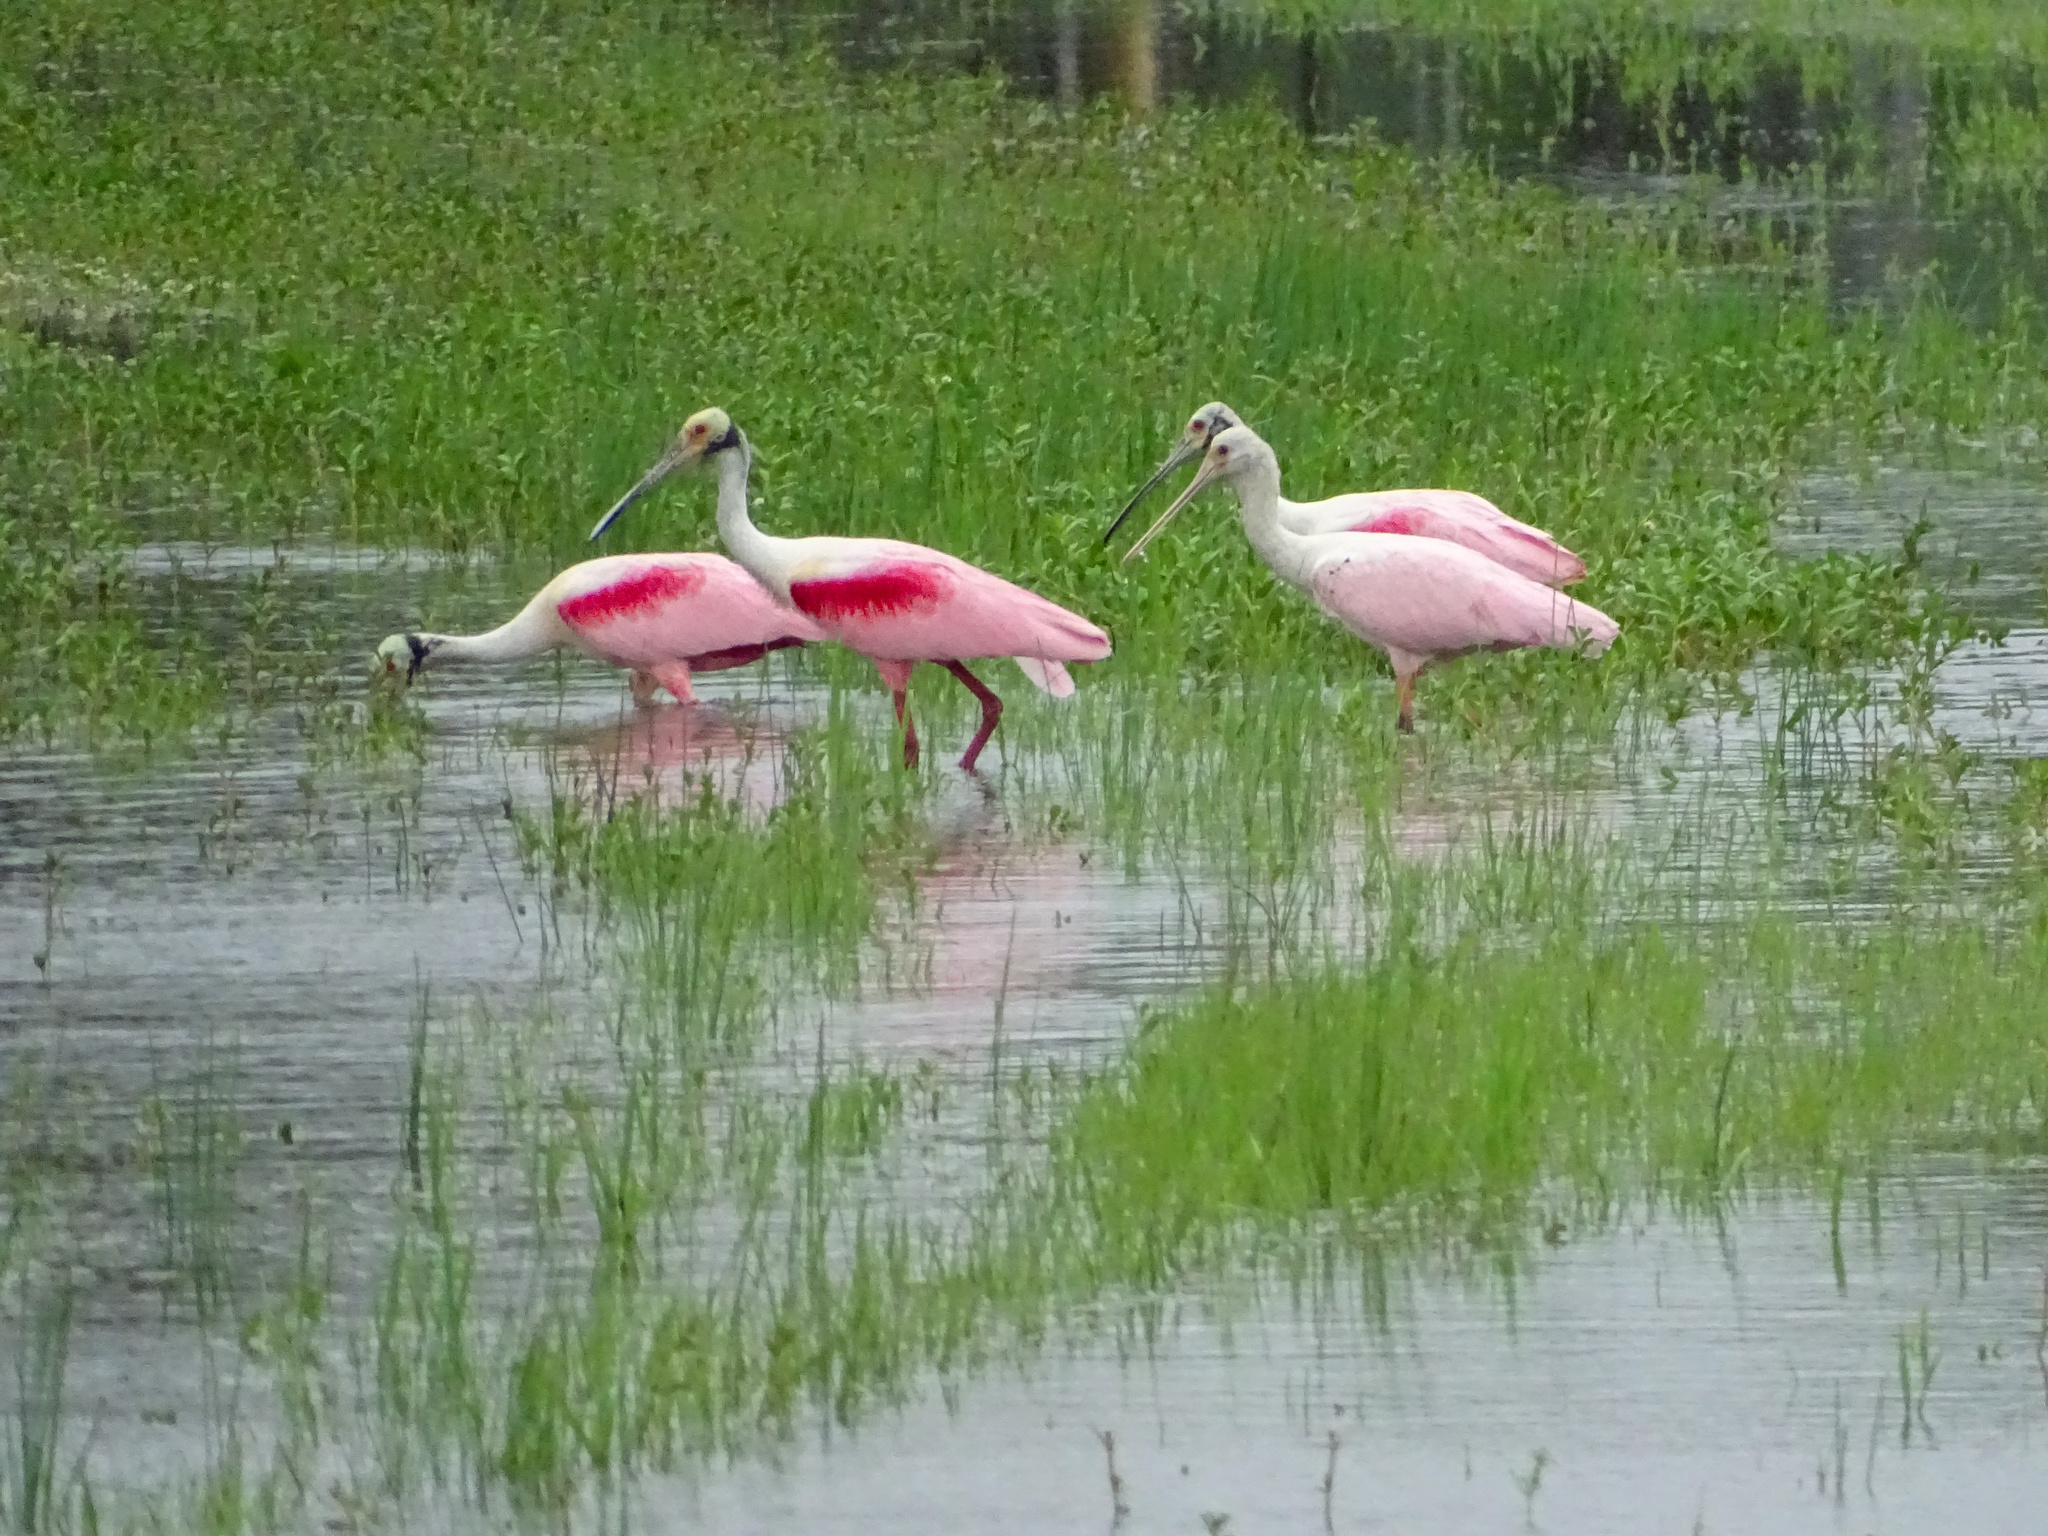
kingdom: Animalia
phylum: Chordata
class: Aves
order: Pelecaniformes
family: Threskiornithidae
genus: Platalea
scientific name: Platalea ajaja
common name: Roseate spoonbill
